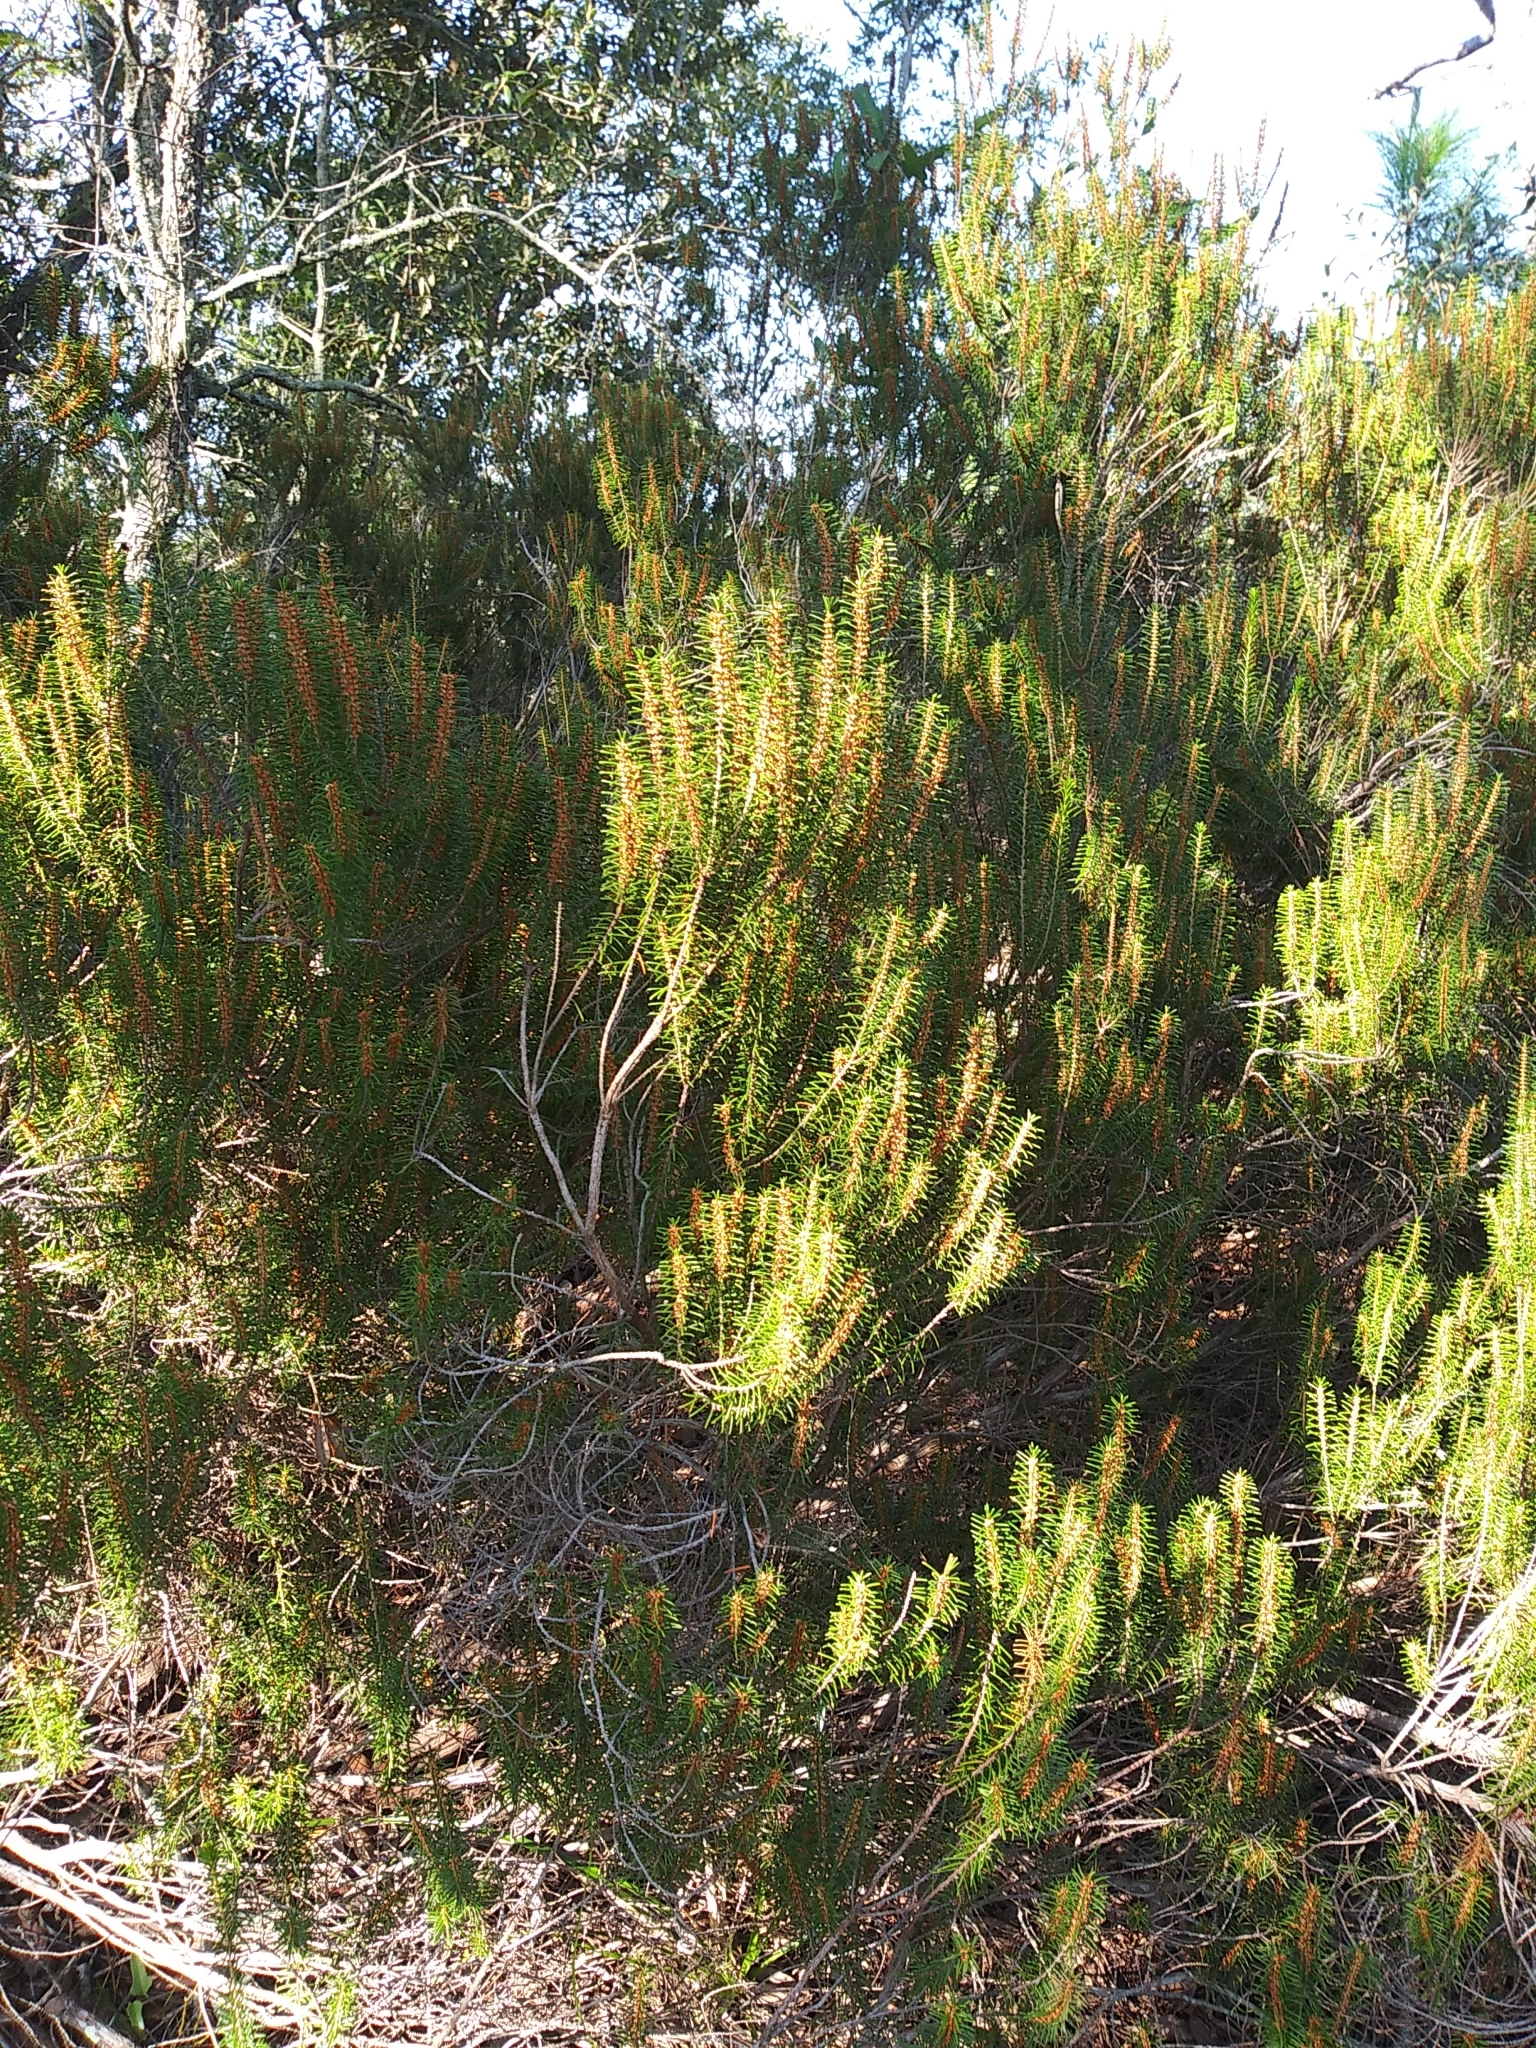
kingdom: Plantae
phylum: Tracheophyta
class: Magnoliopsida
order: Ericales
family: Ericaceae
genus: Ceratiola
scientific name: Ceratiola ericoides
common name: Sandhill-rosemary
